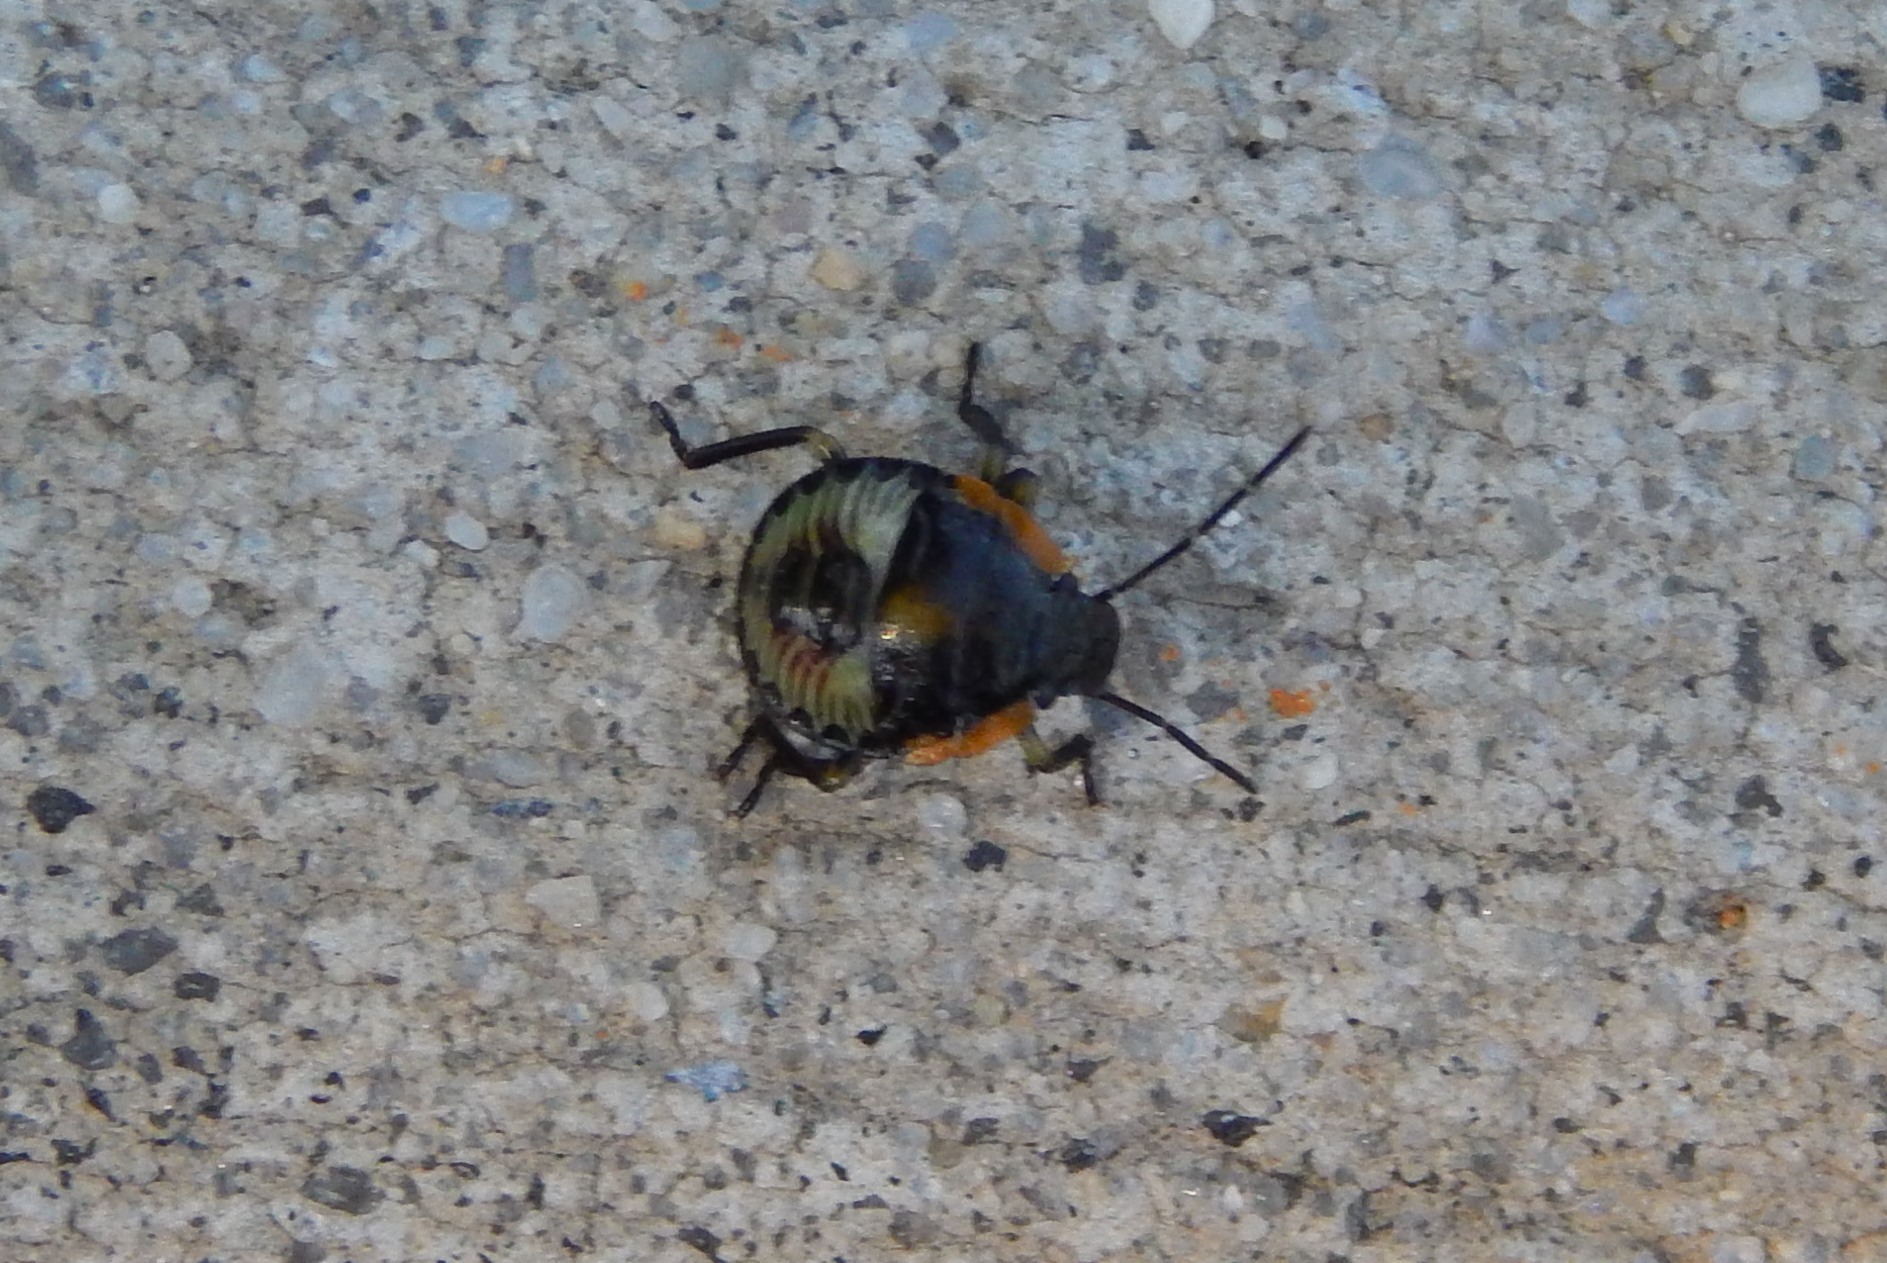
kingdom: Animalia
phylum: Arthropoda
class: Insecta
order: Hemiptera
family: Pentatomidae
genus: Chinavia
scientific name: Chinavia hilaris
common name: Green stink bug
